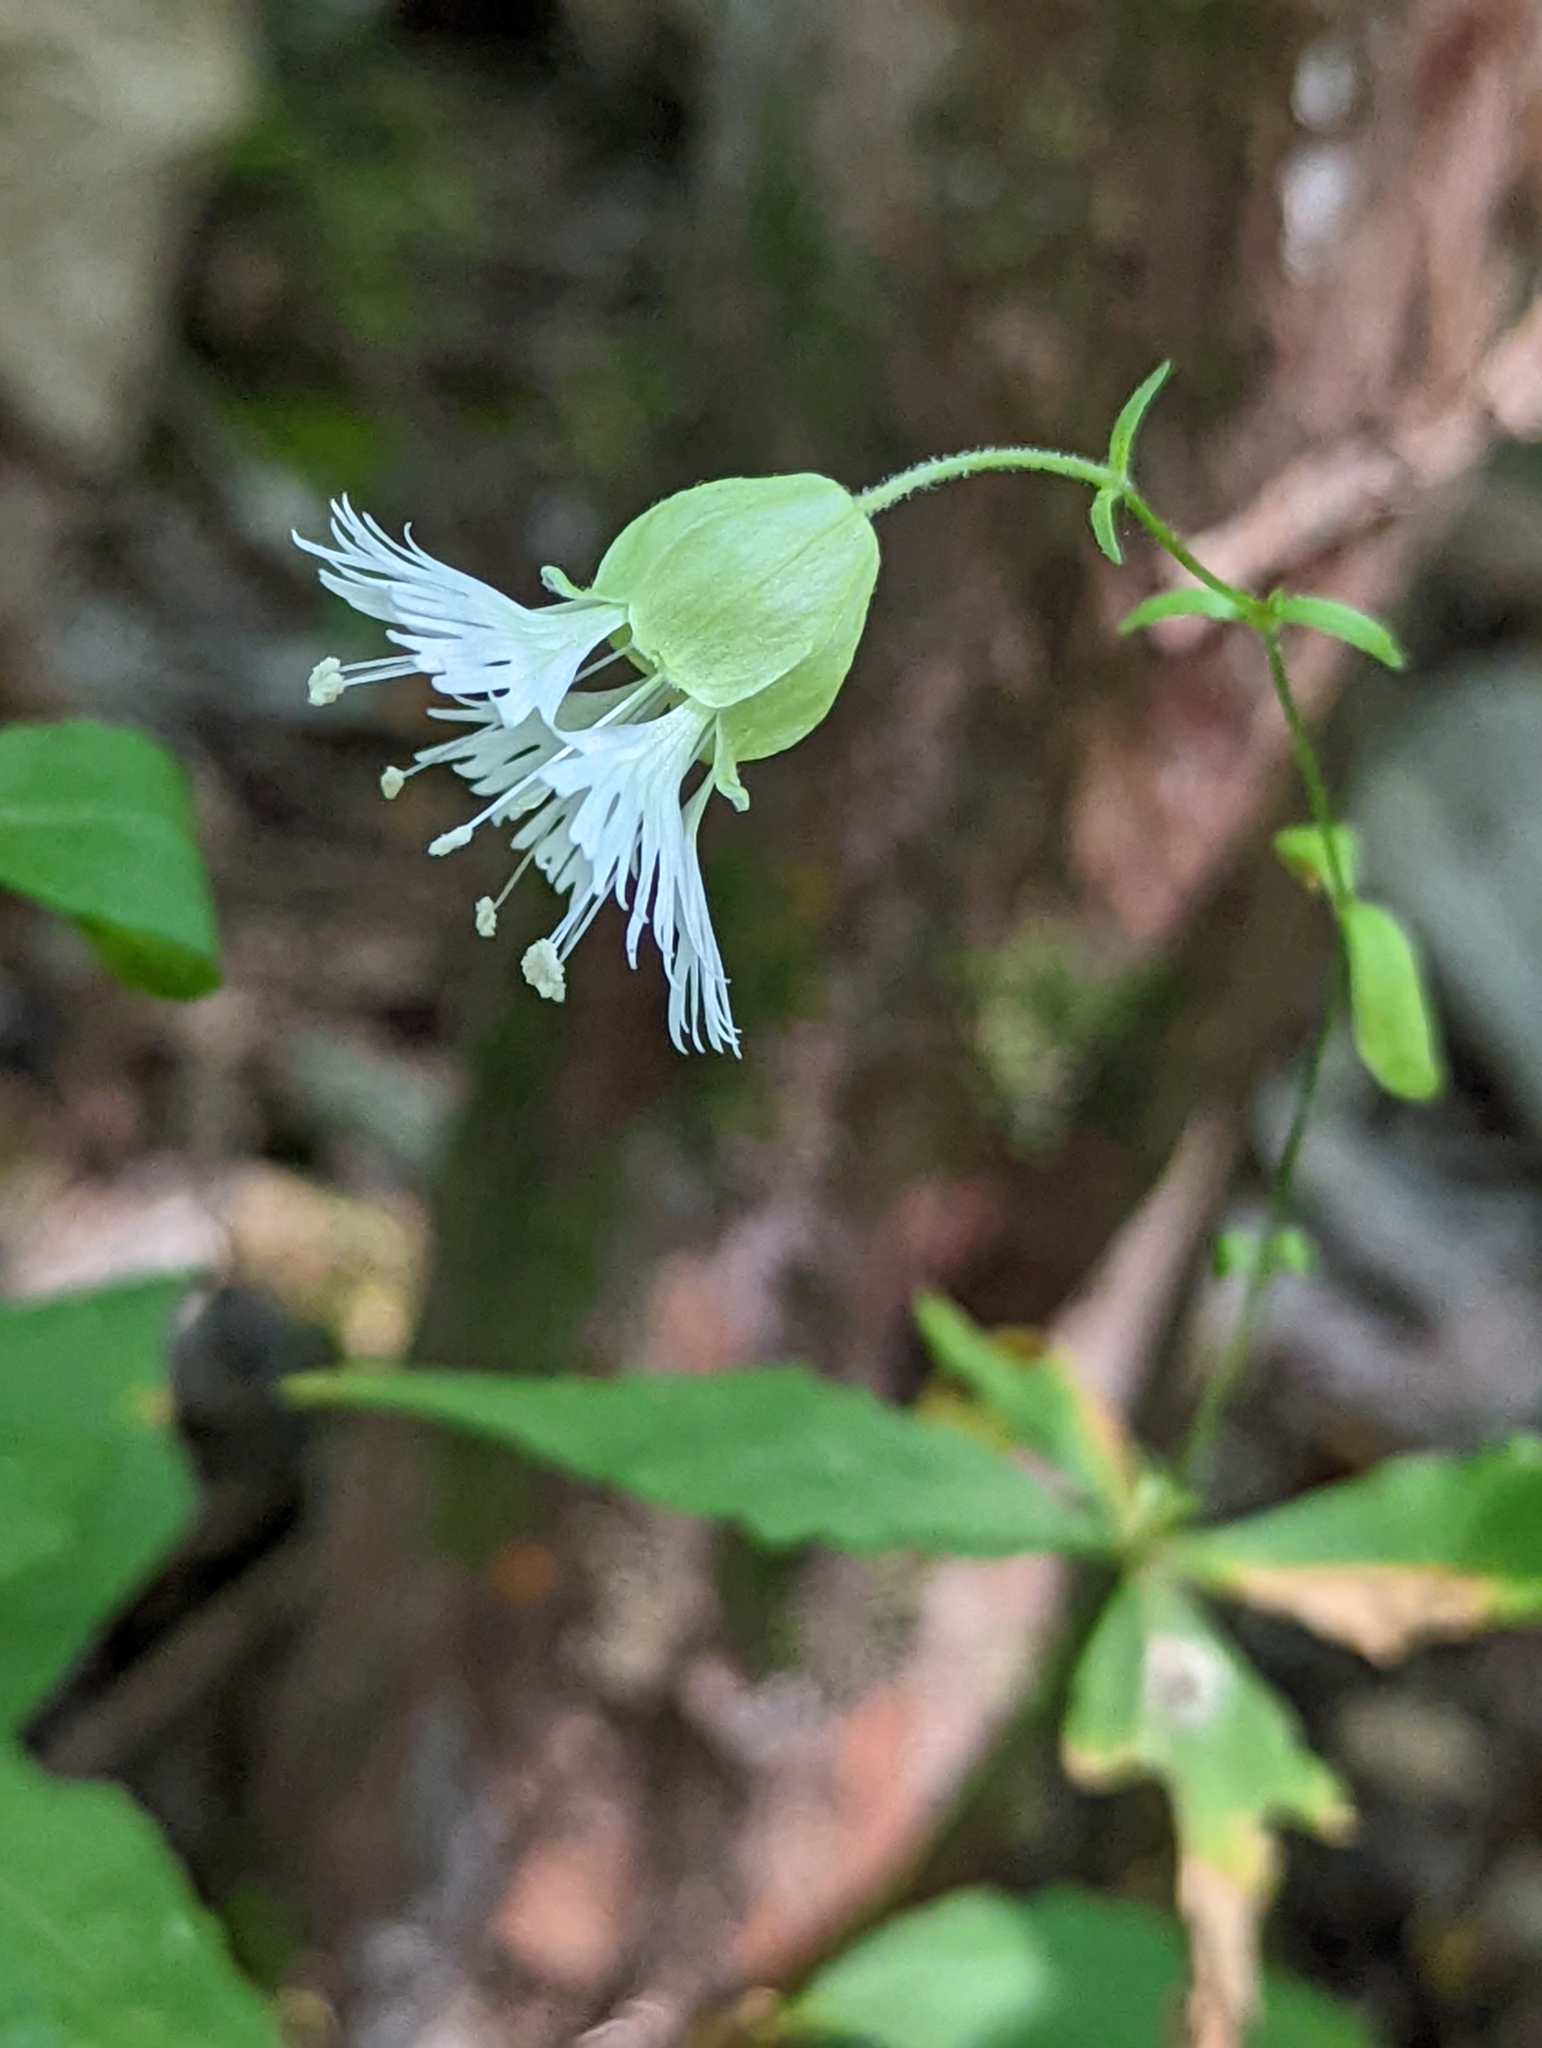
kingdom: Plantae
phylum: Tracheophyta
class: Magnoliopsida
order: Caryophyllales
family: Caryophyllaceae
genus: Silene
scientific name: Silene stellata
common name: Starry campion
